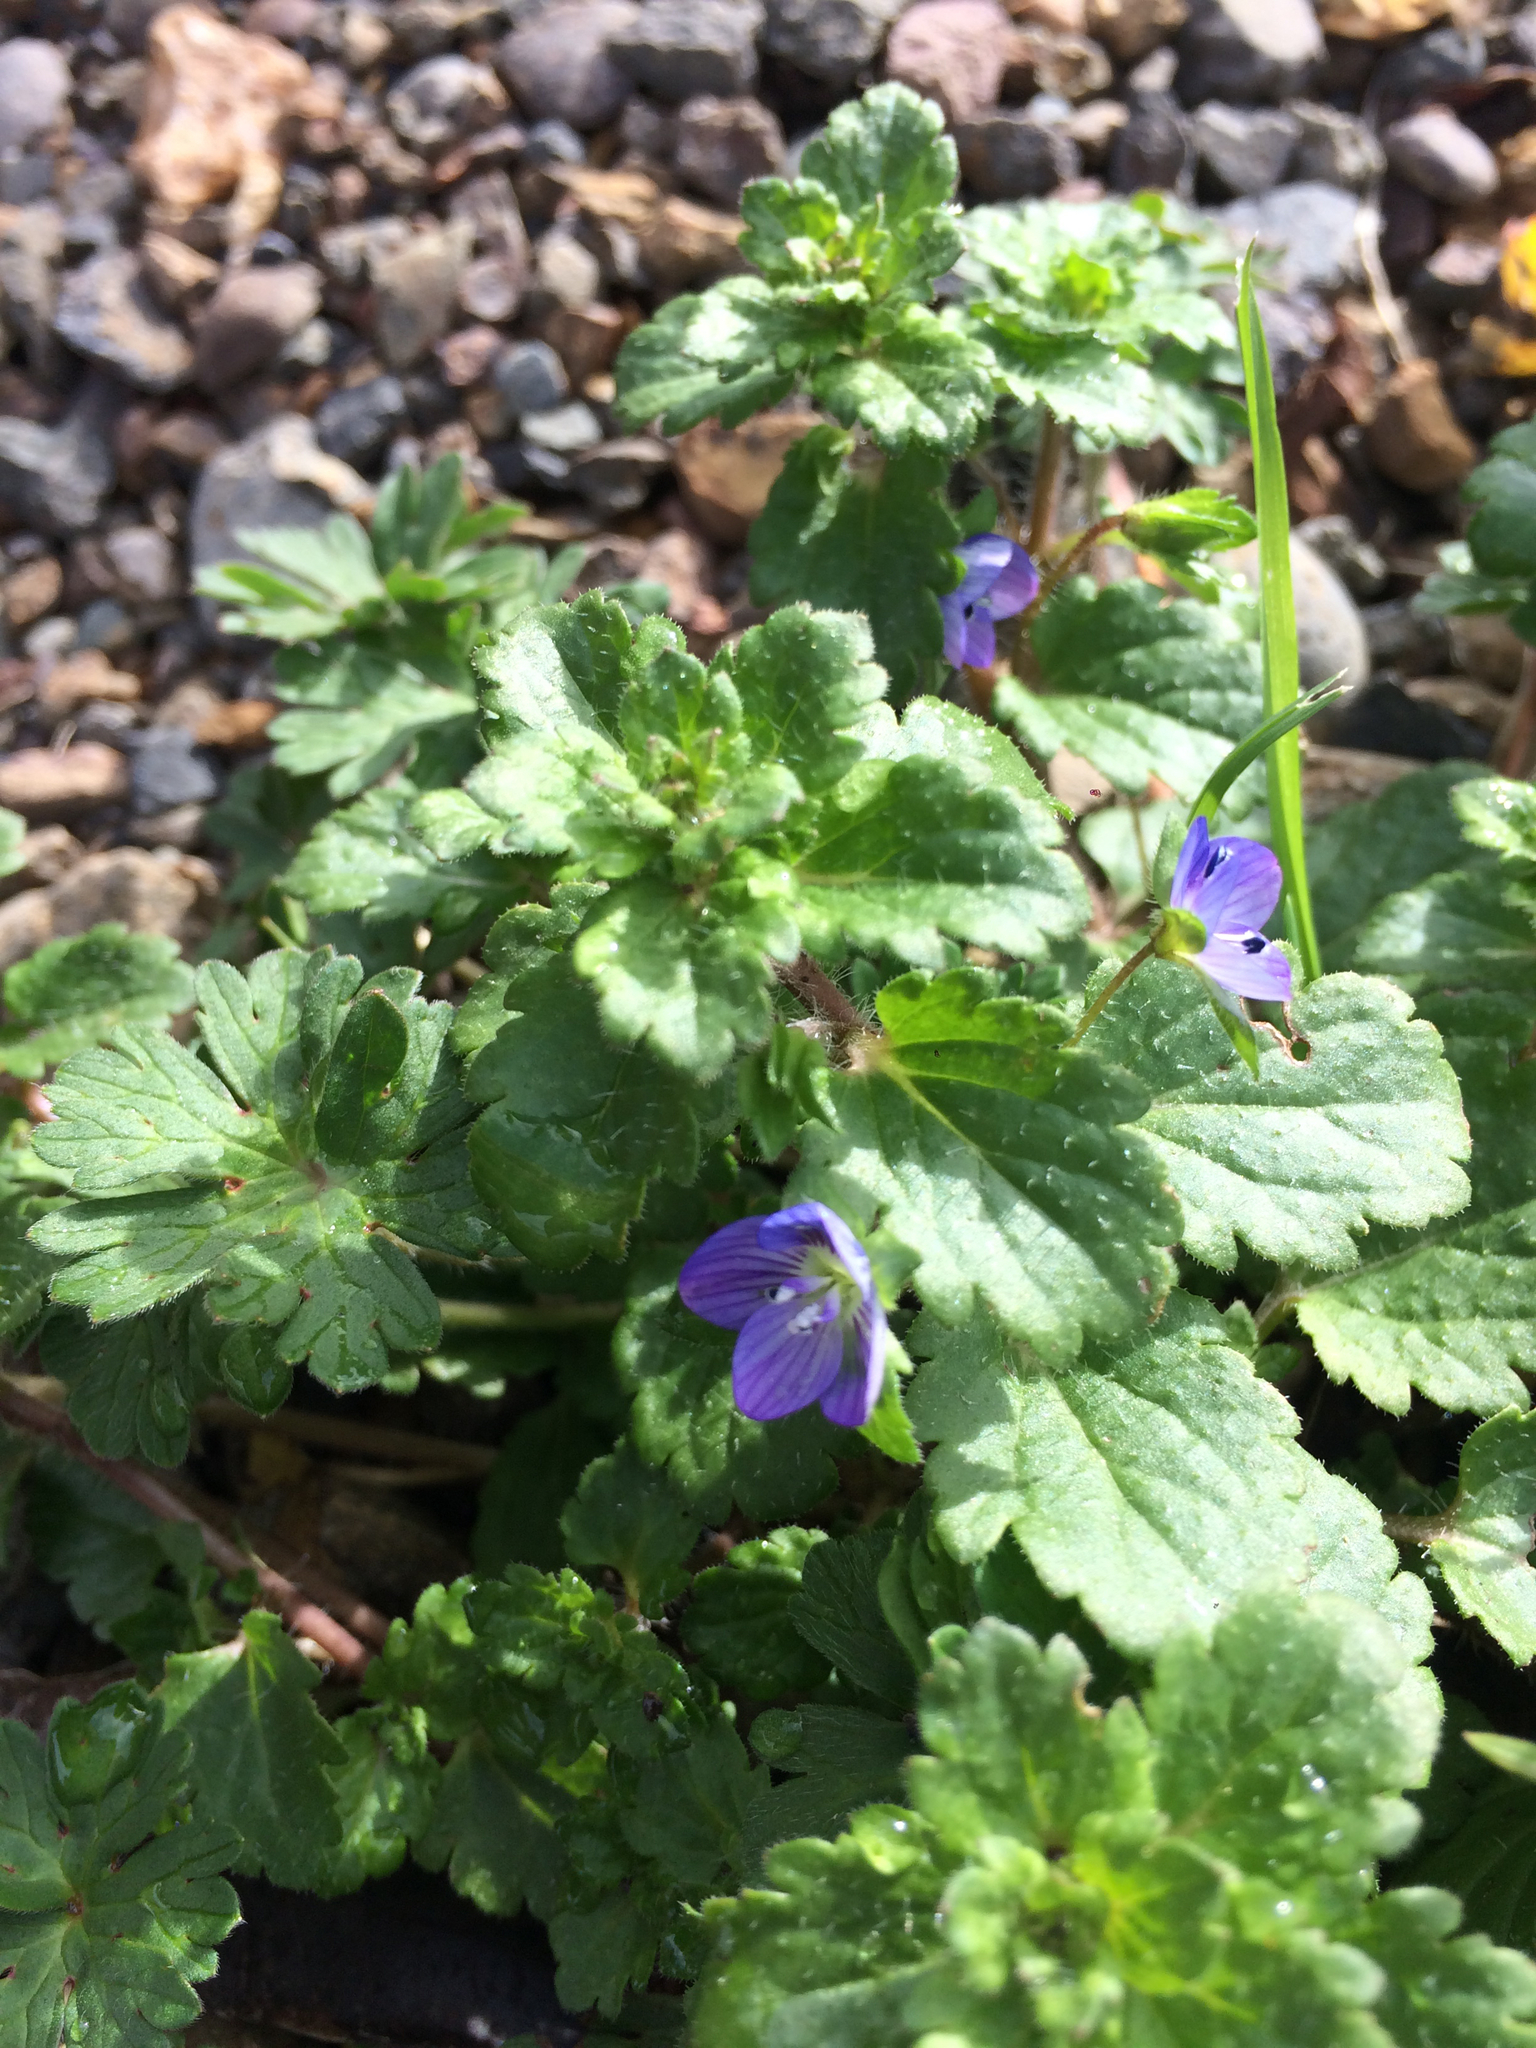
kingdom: Plantae
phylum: Tracheophyta
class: Magnoliopsida
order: Lamiales
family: Plantaginaceae
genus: Veronica
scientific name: Veronica persica
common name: Common field-speedwell
